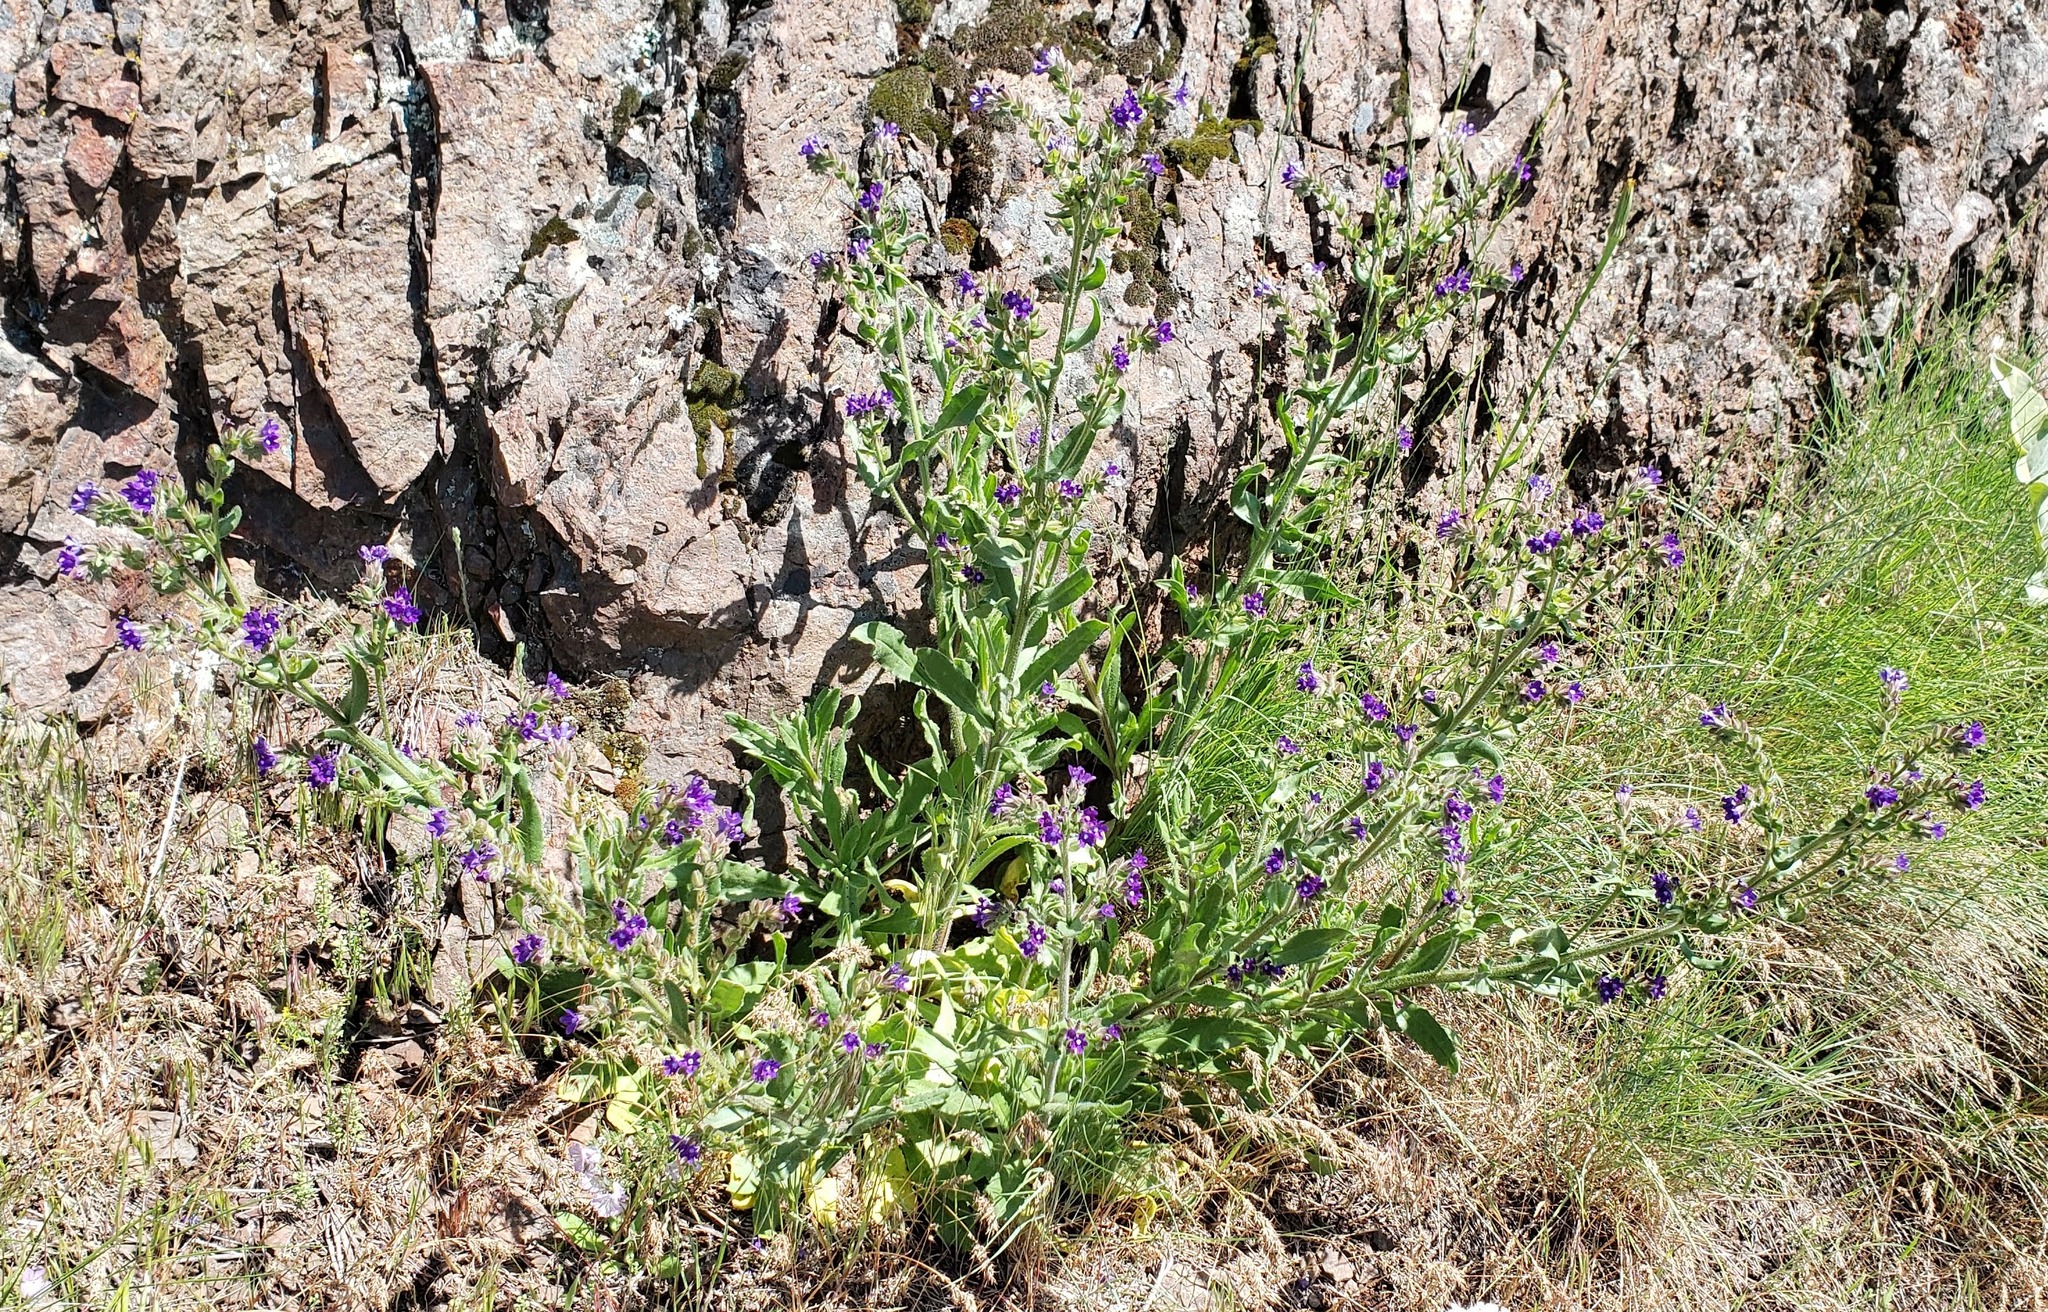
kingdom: Plantae
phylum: Tracheophyta
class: Magnoliopsida
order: Boraginales
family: Boraginaceae
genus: Anchusa
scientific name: Anchusa officinalis
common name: Alkanet
